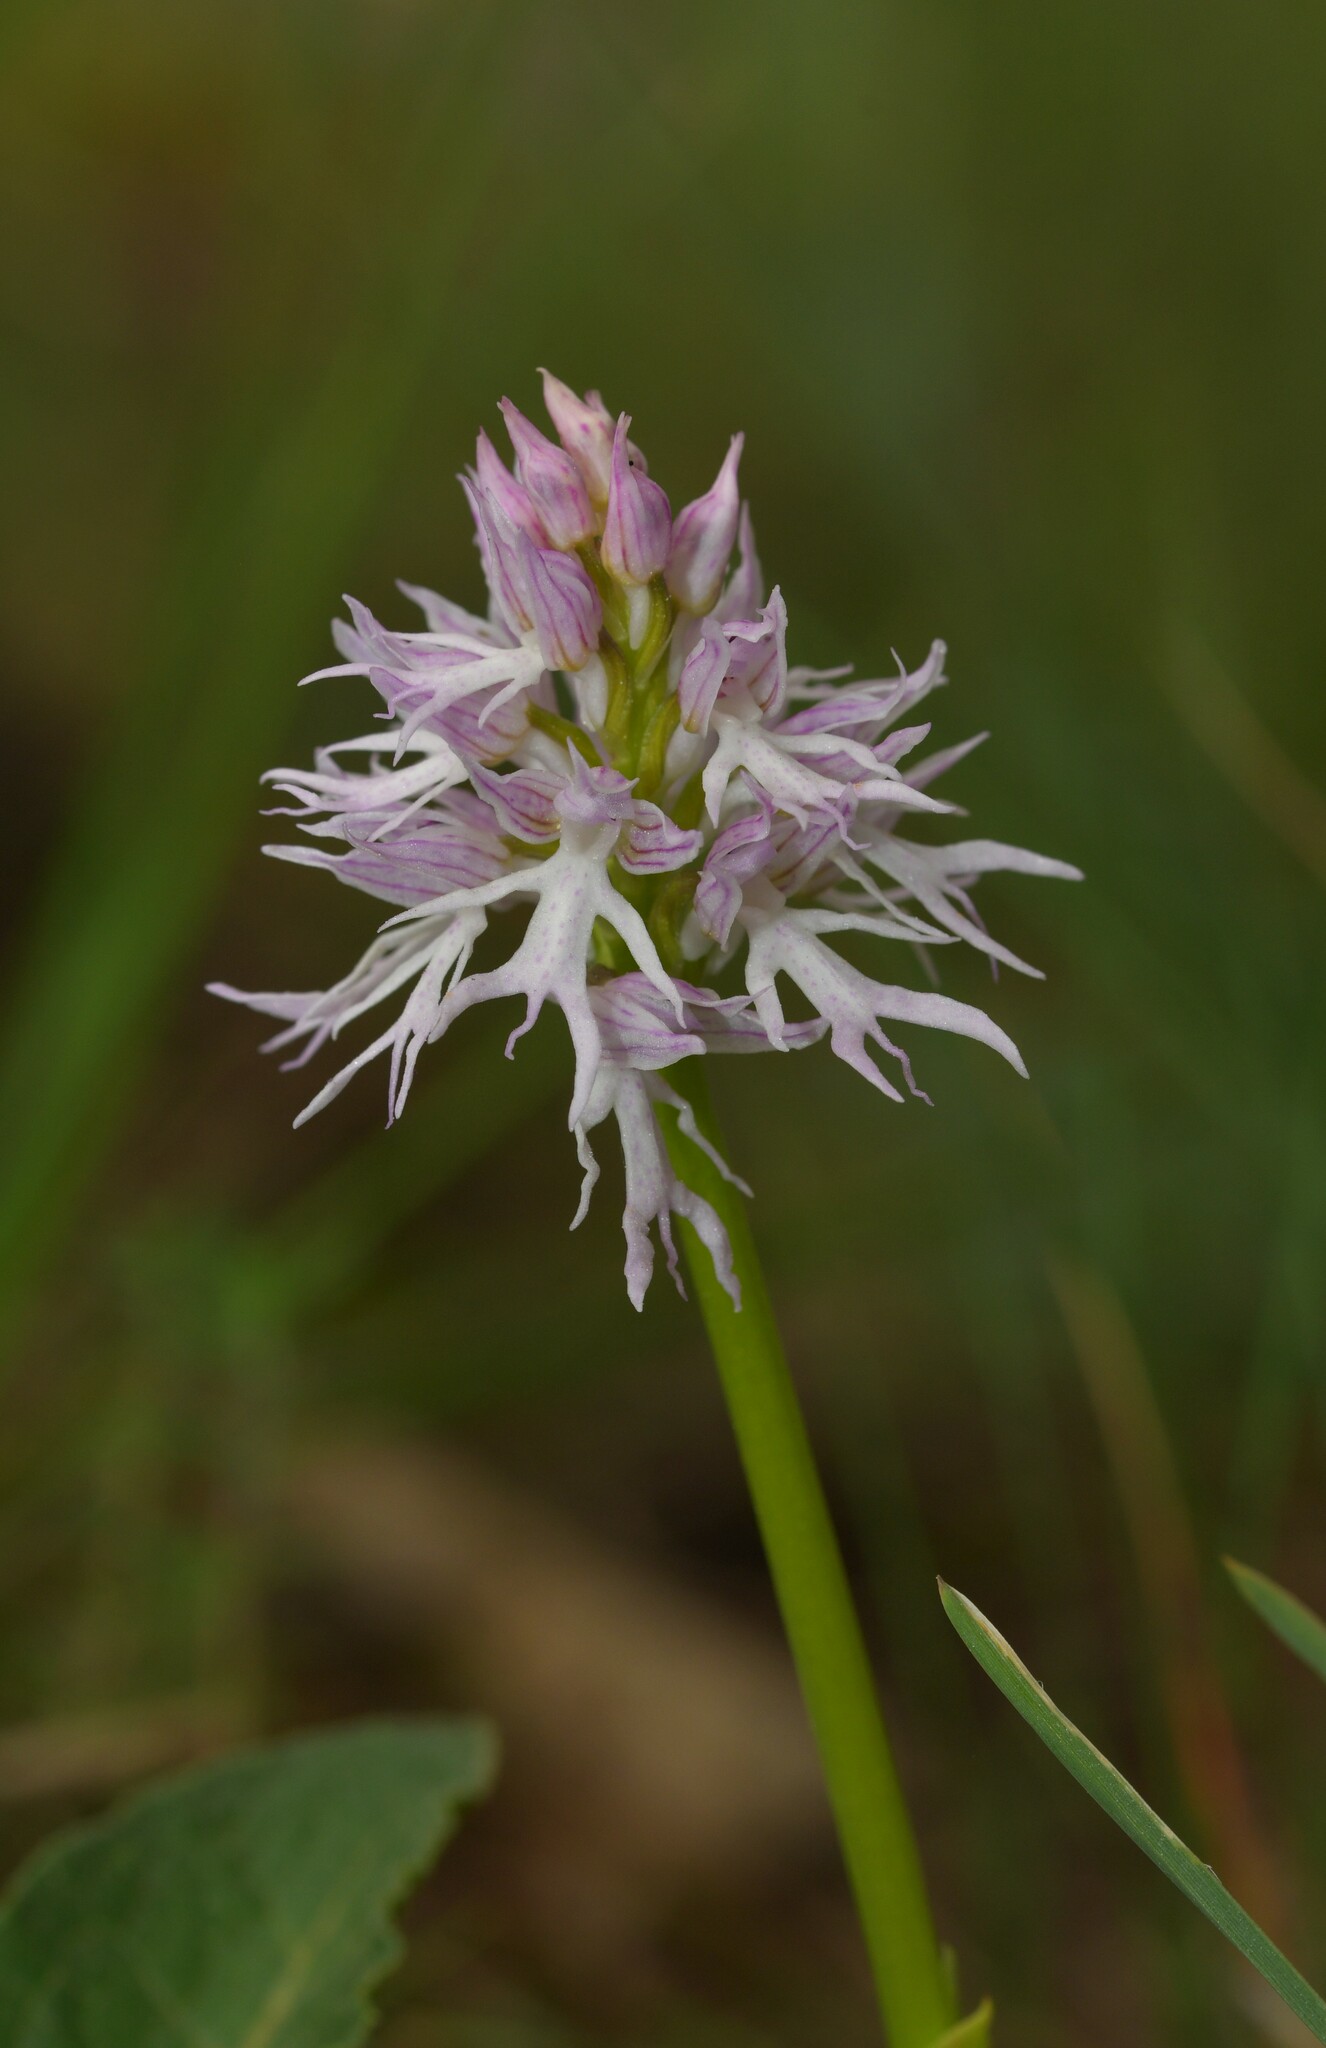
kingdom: Plantae
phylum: Tracheophyta
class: Liliopsida
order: Asparagales
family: Orchidaceae
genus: Orchis
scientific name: Orchis italica
